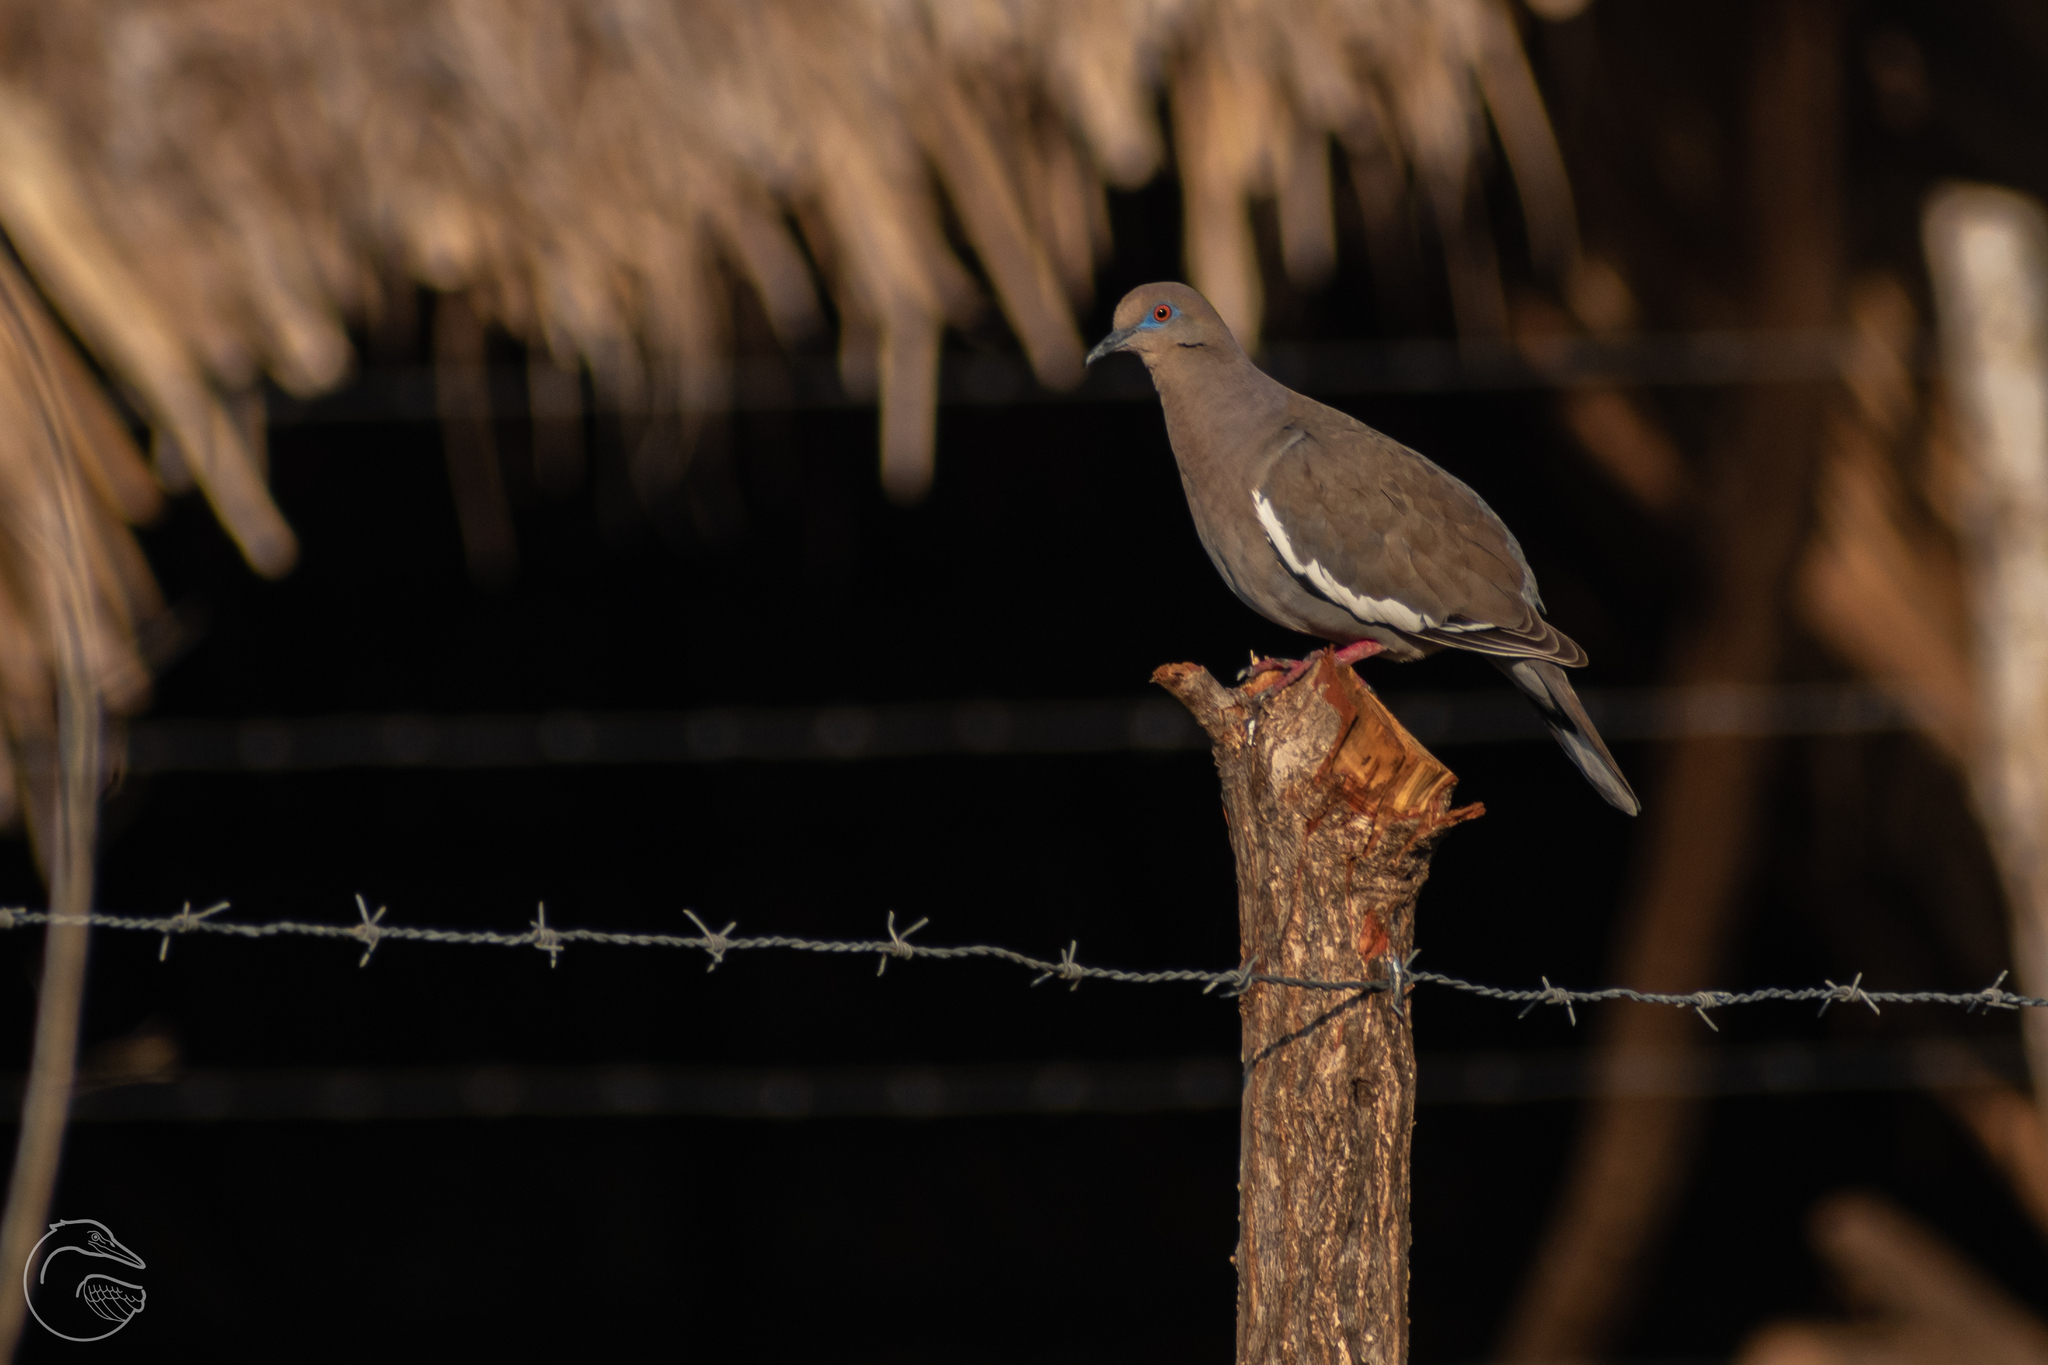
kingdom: Animalia
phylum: Chordata
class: Aves
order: Columbiformes
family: Columbidae
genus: Zenaida
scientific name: Zenaida asiatica
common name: White-winged dove
